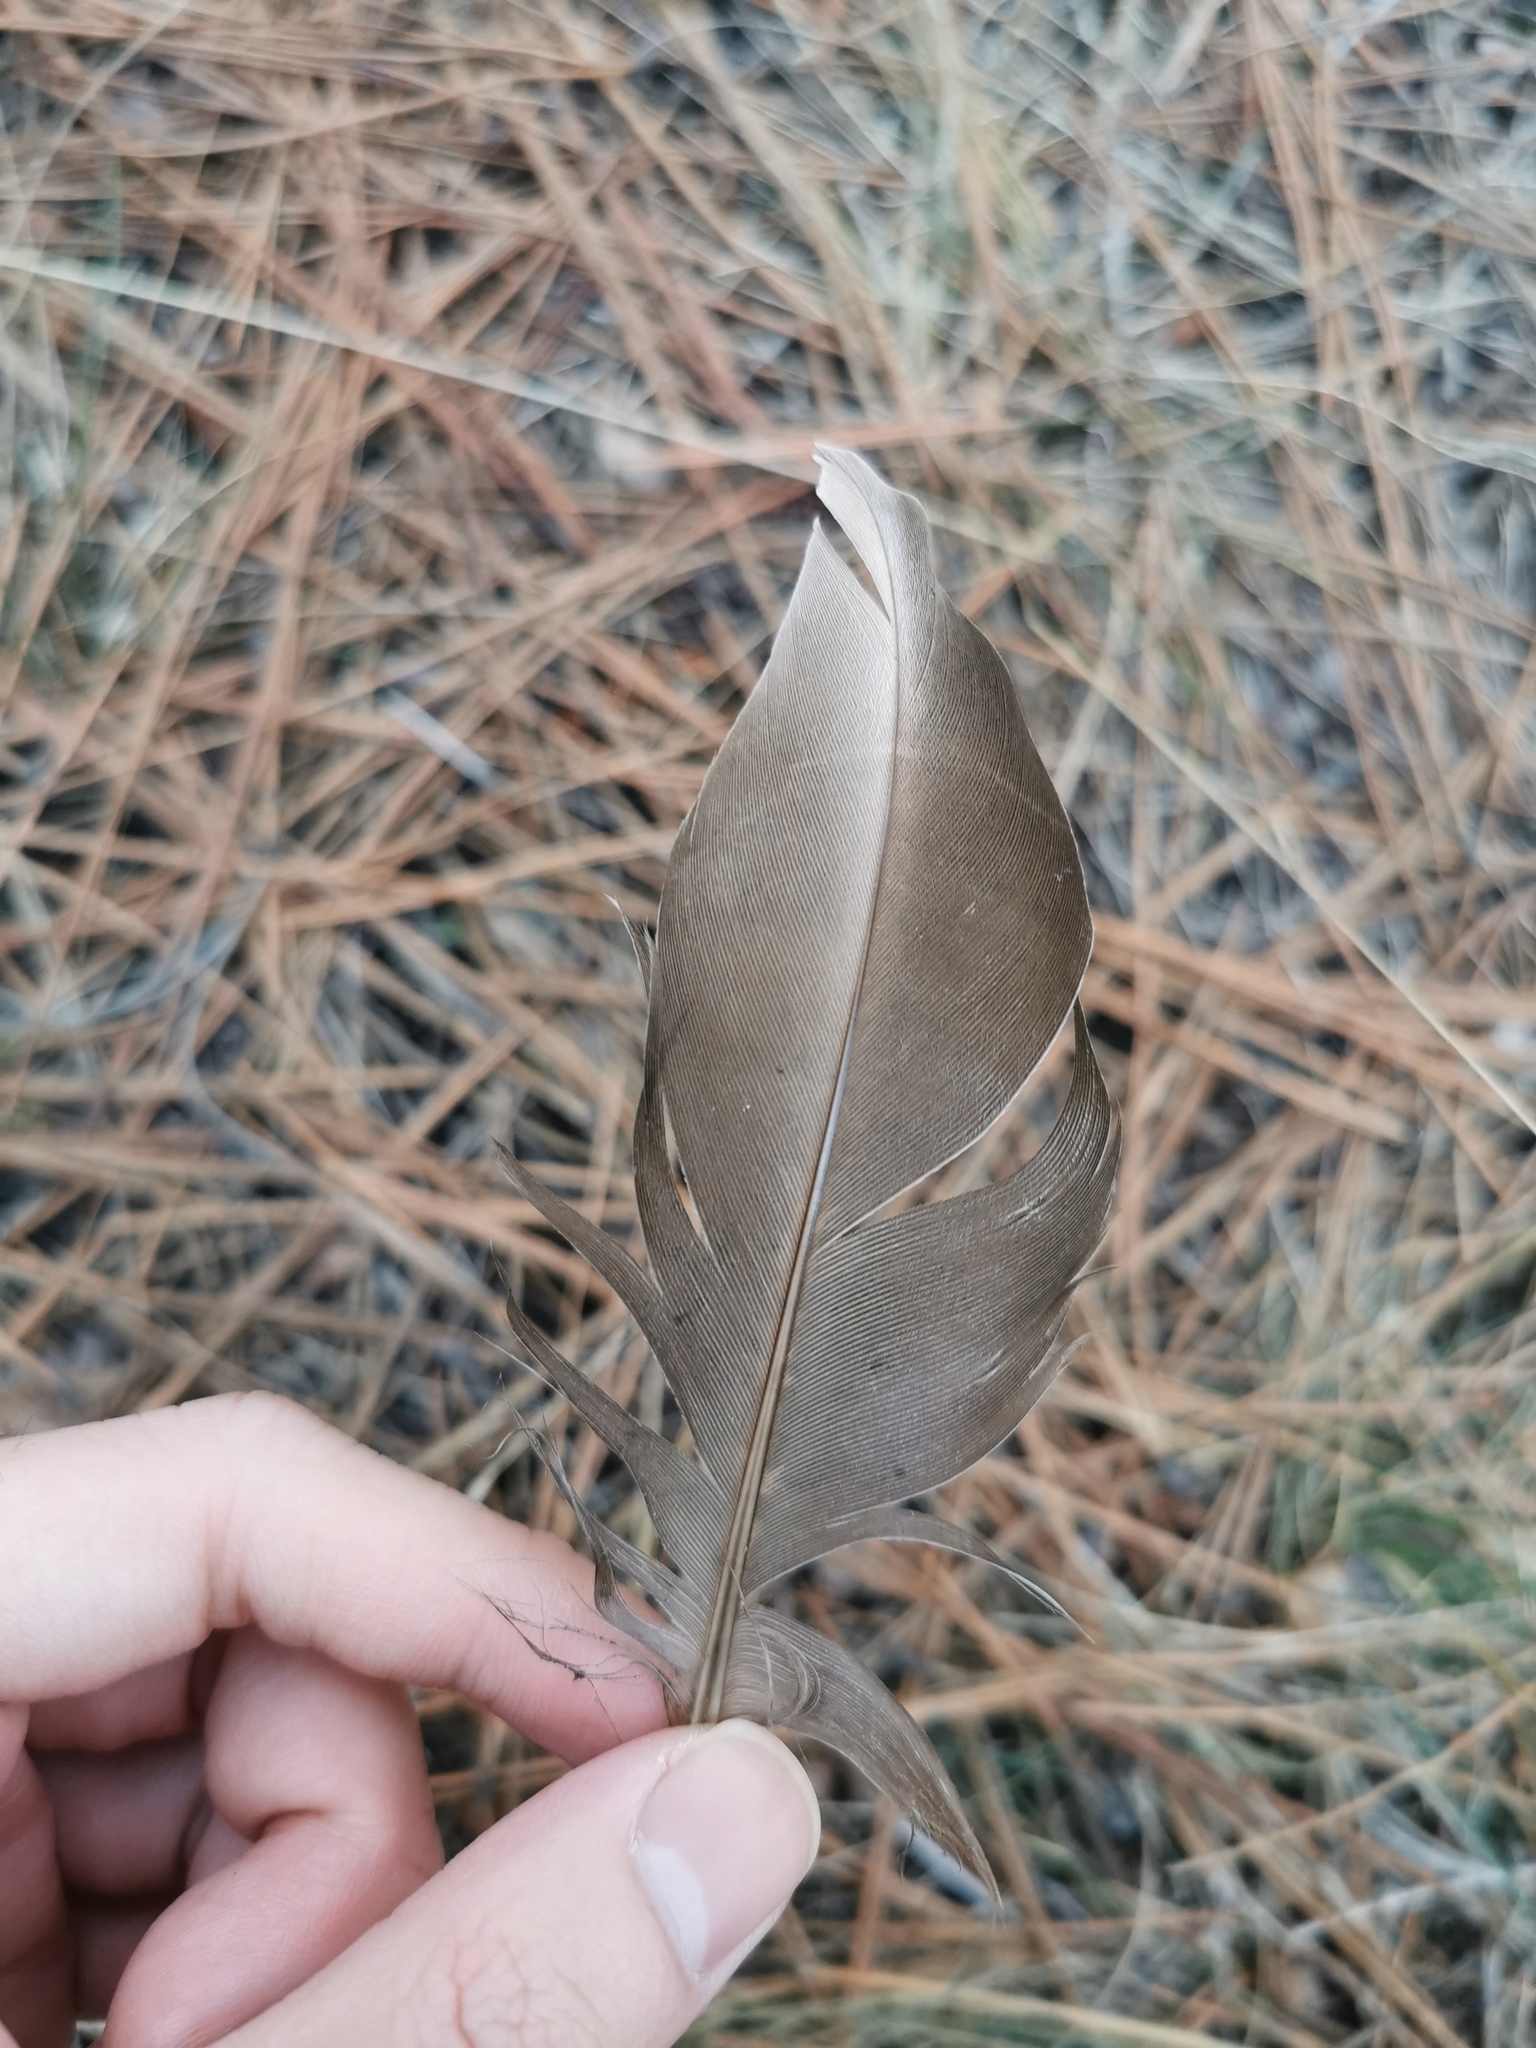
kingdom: Animalia
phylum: Chordata
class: Aves
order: Anseriformes
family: Anatidae
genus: Anas
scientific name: Anas platyrhynchos
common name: Mallard
